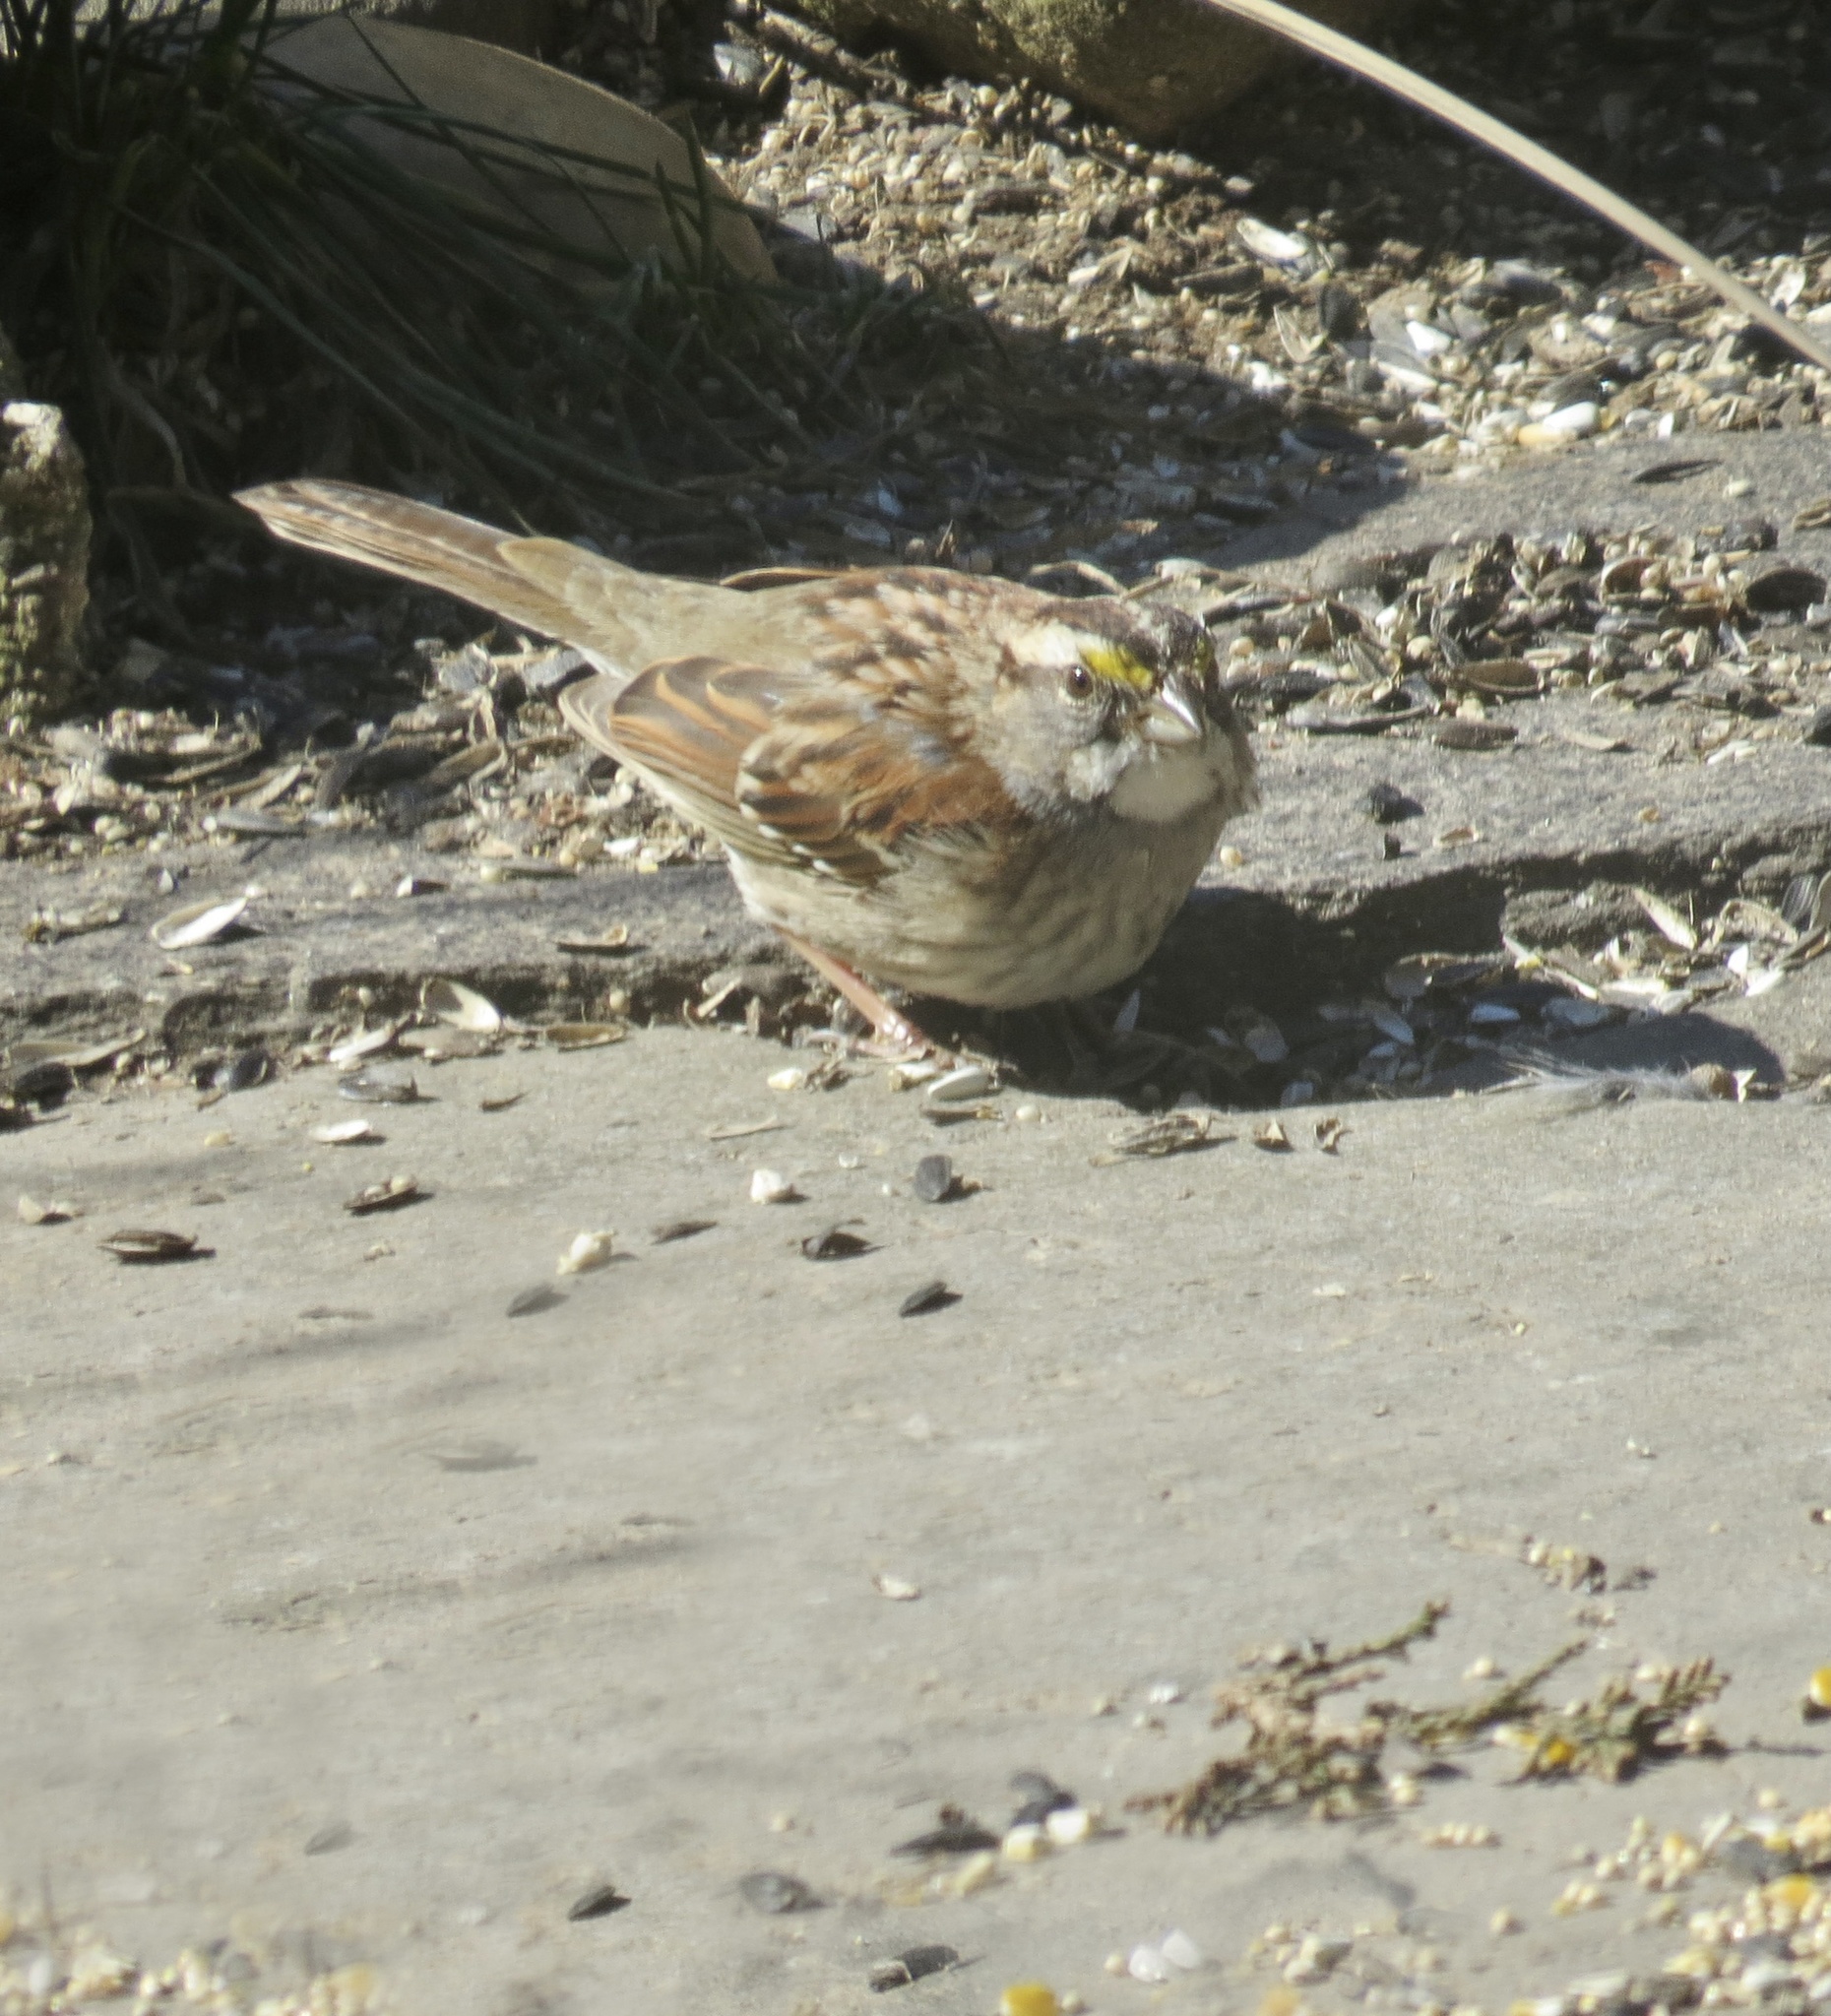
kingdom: Animalia
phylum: Chordata
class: Aves
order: Passeriformes
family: Passerellidae
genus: Zonotrichia
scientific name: Zonotrichia albicollis
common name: White-throated sparrow
